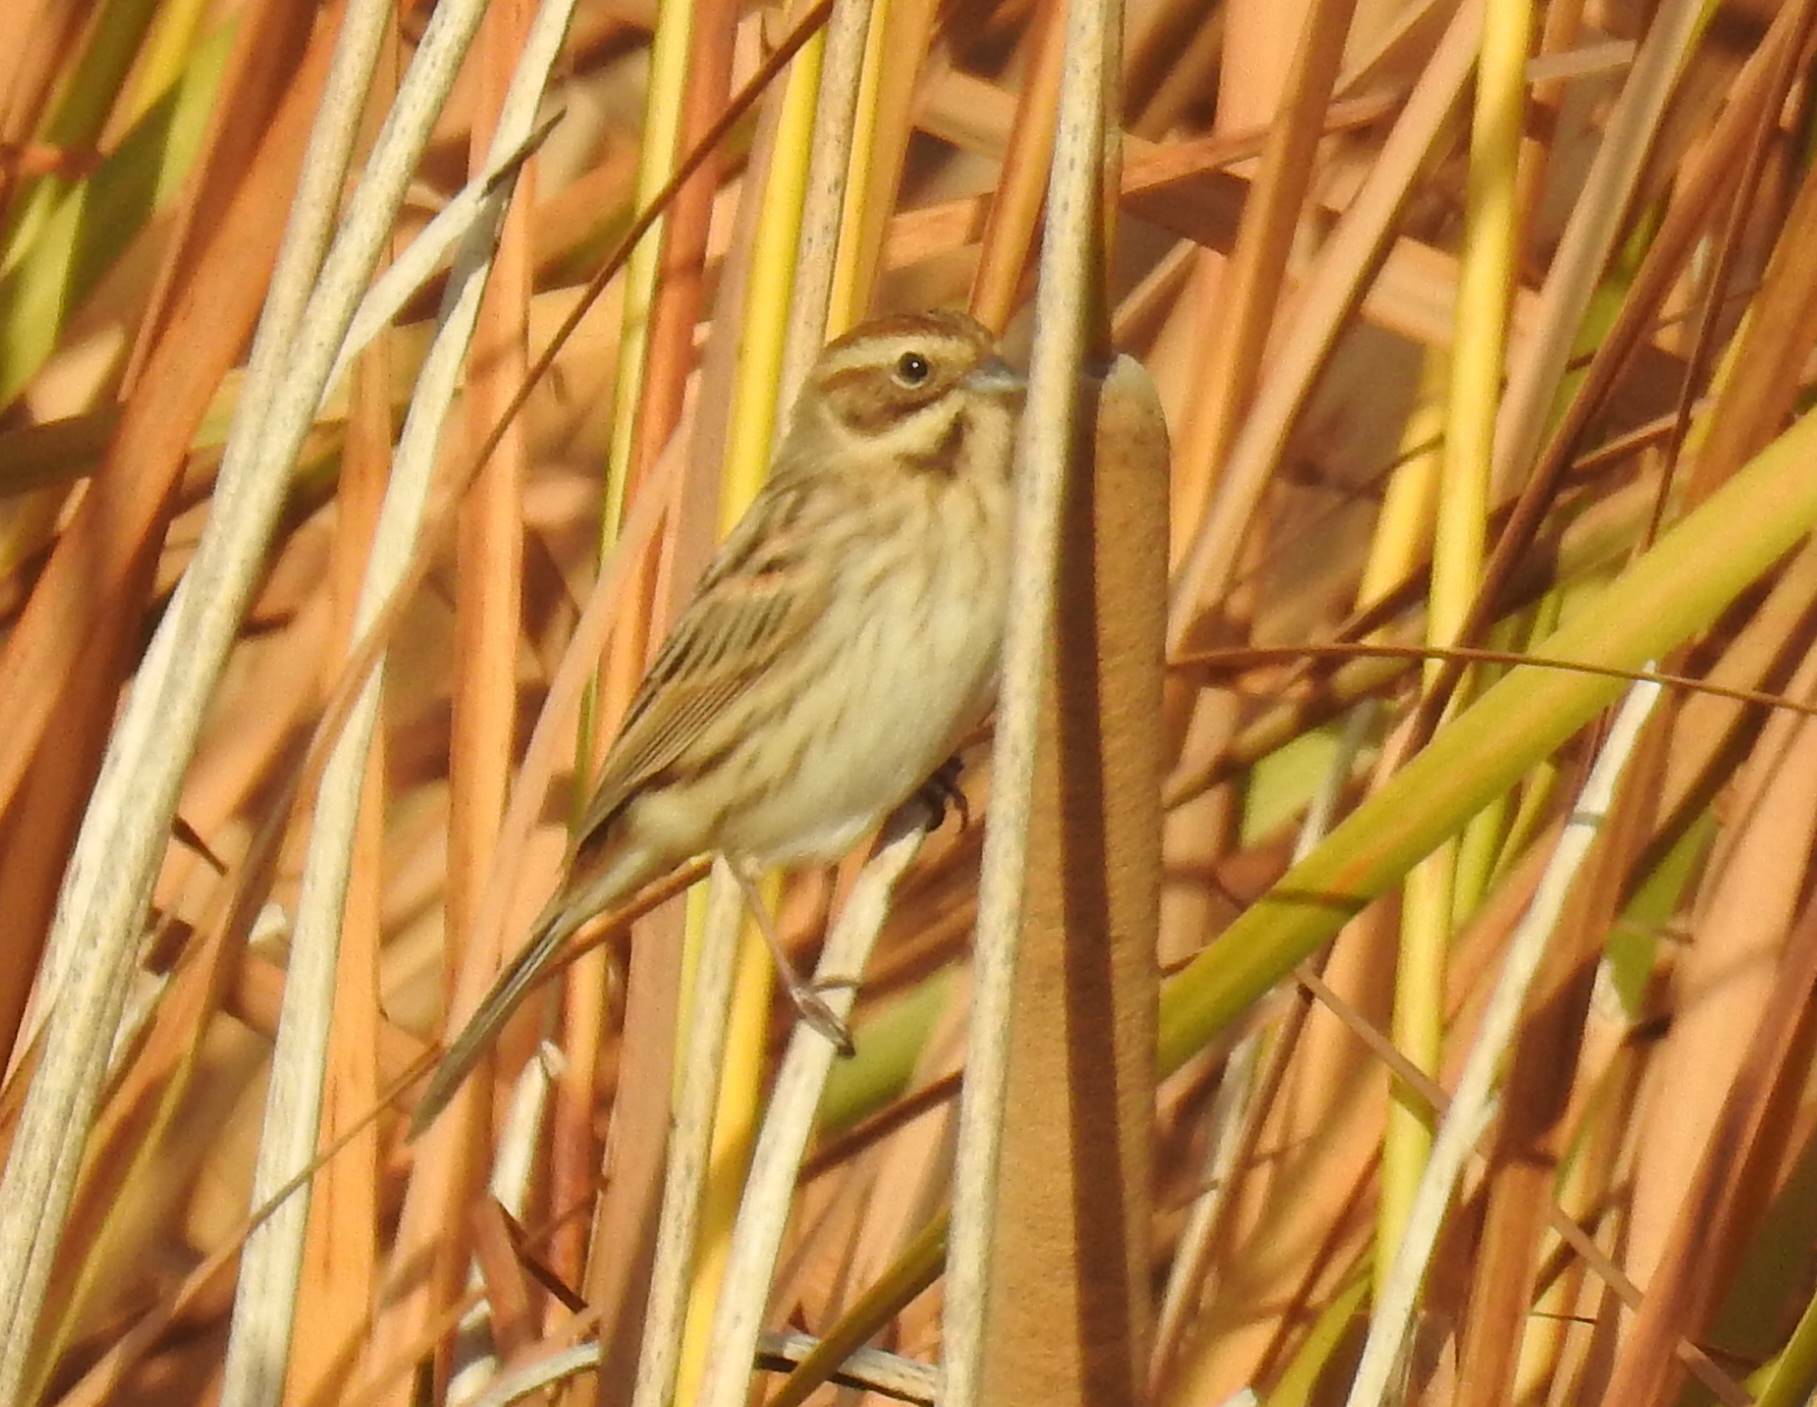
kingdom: Animalia
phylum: Chordata
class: Aves
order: Passeriformes
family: Emberizidae
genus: Emberiza
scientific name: Emberiza schoeniclus
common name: Reed bunting
